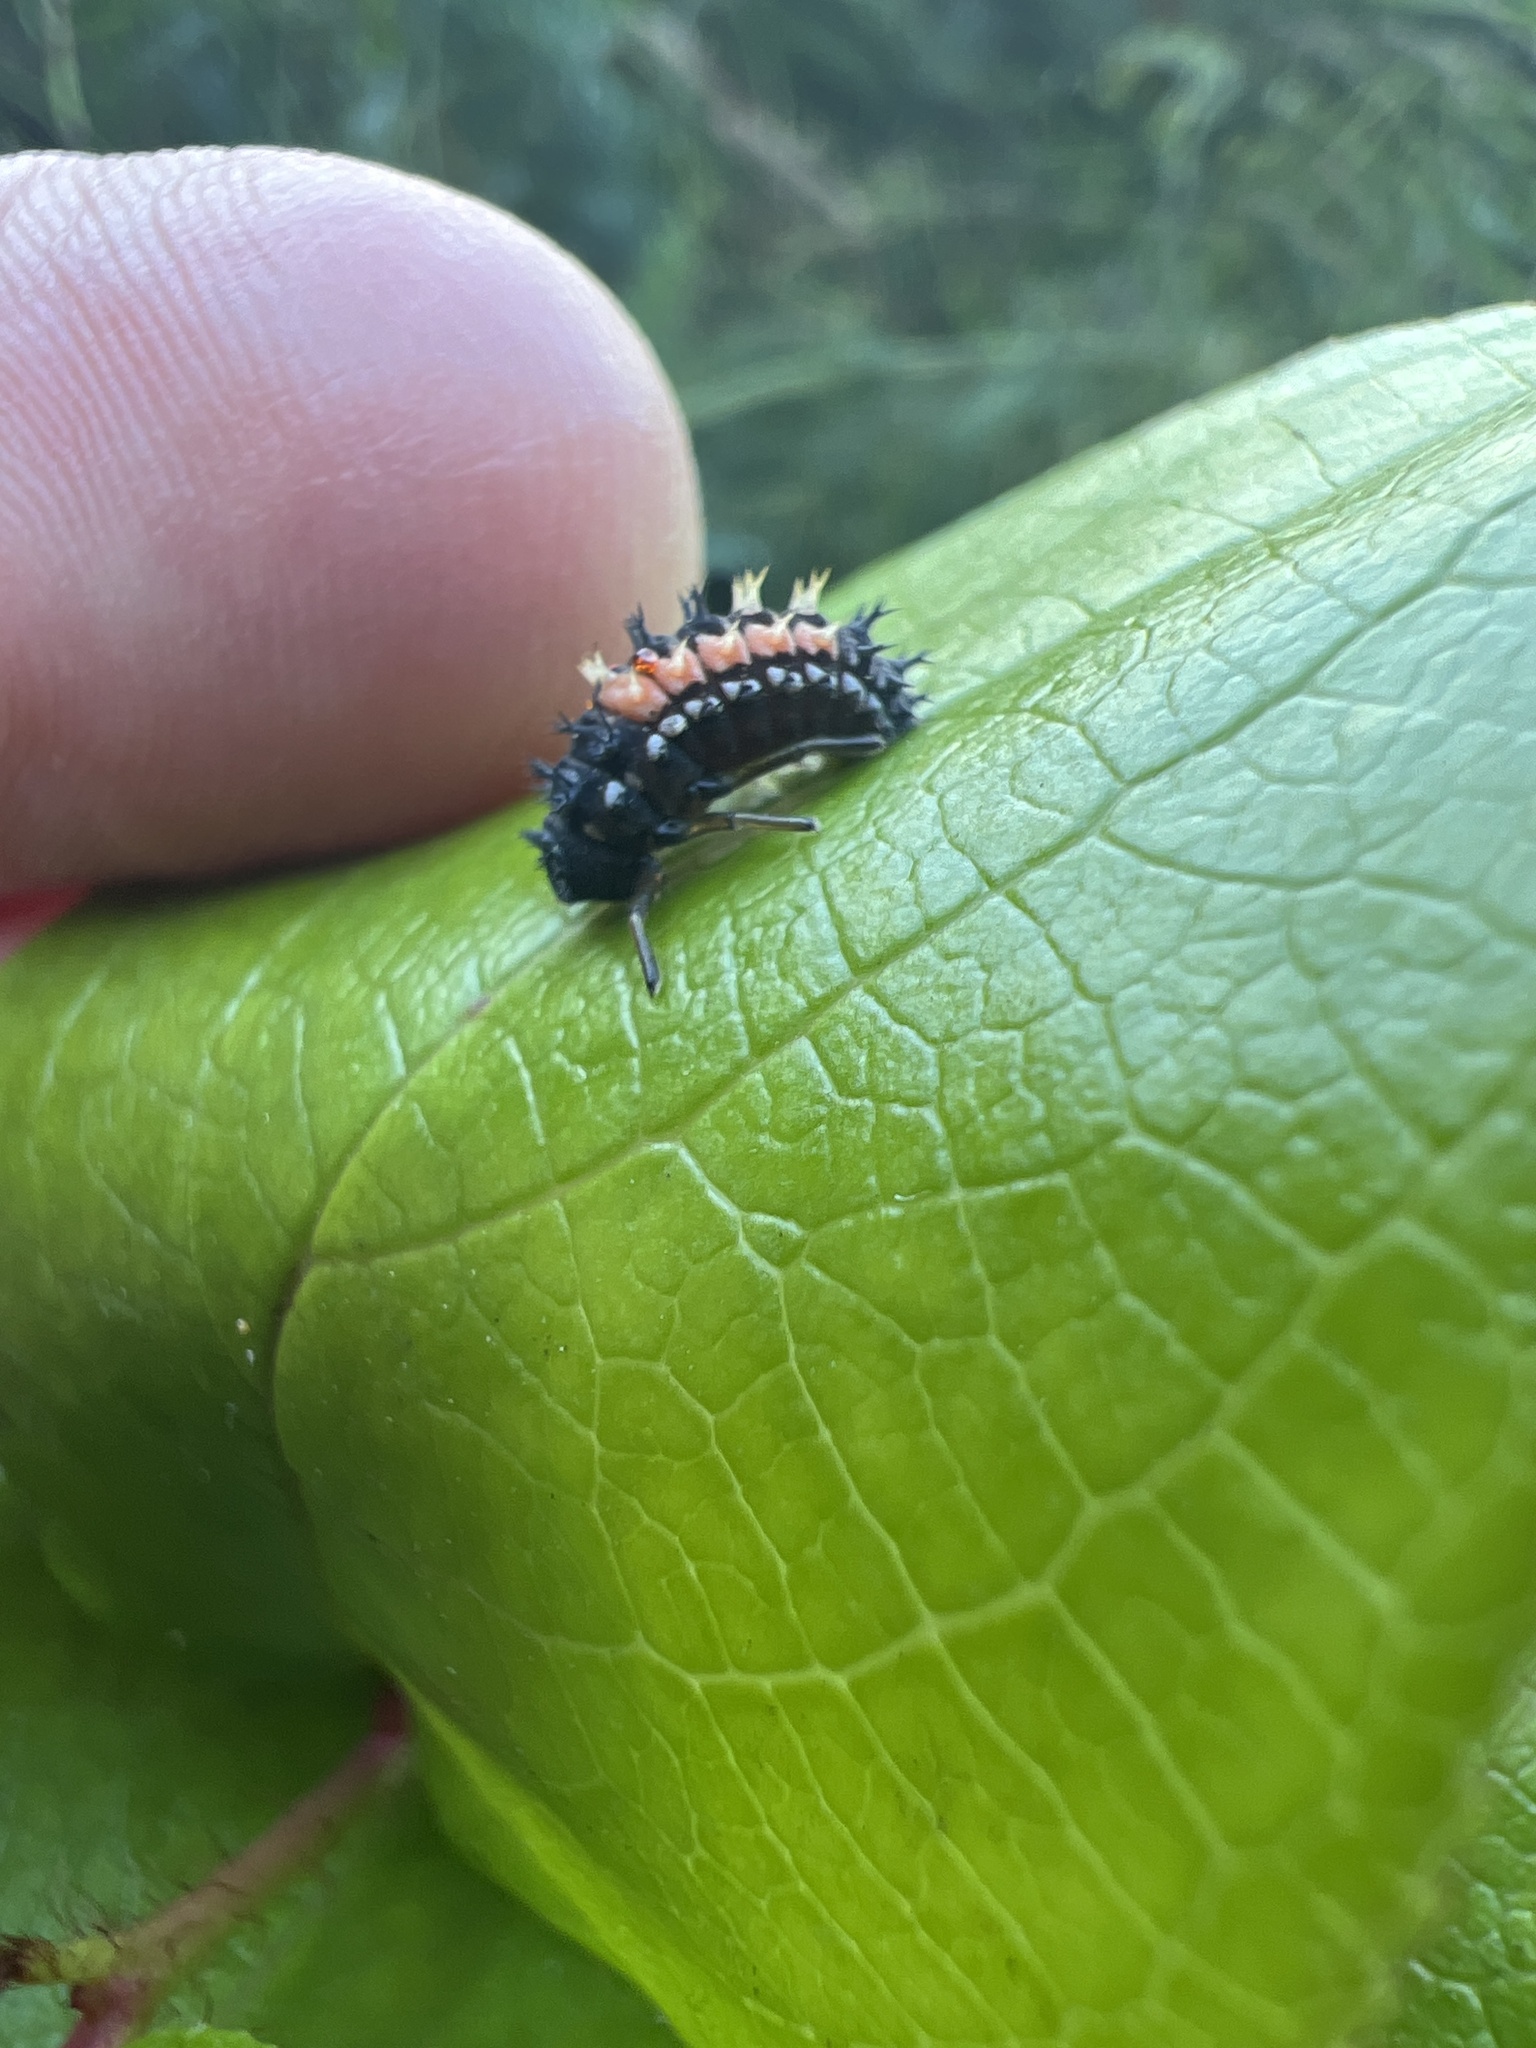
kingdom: Animalia
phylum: Arthropoda
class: Insecta
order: Coleoptera
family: Coccinellidae
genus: Harmonia
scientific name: Harmonia axyridis
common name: Harlequin ladybird
